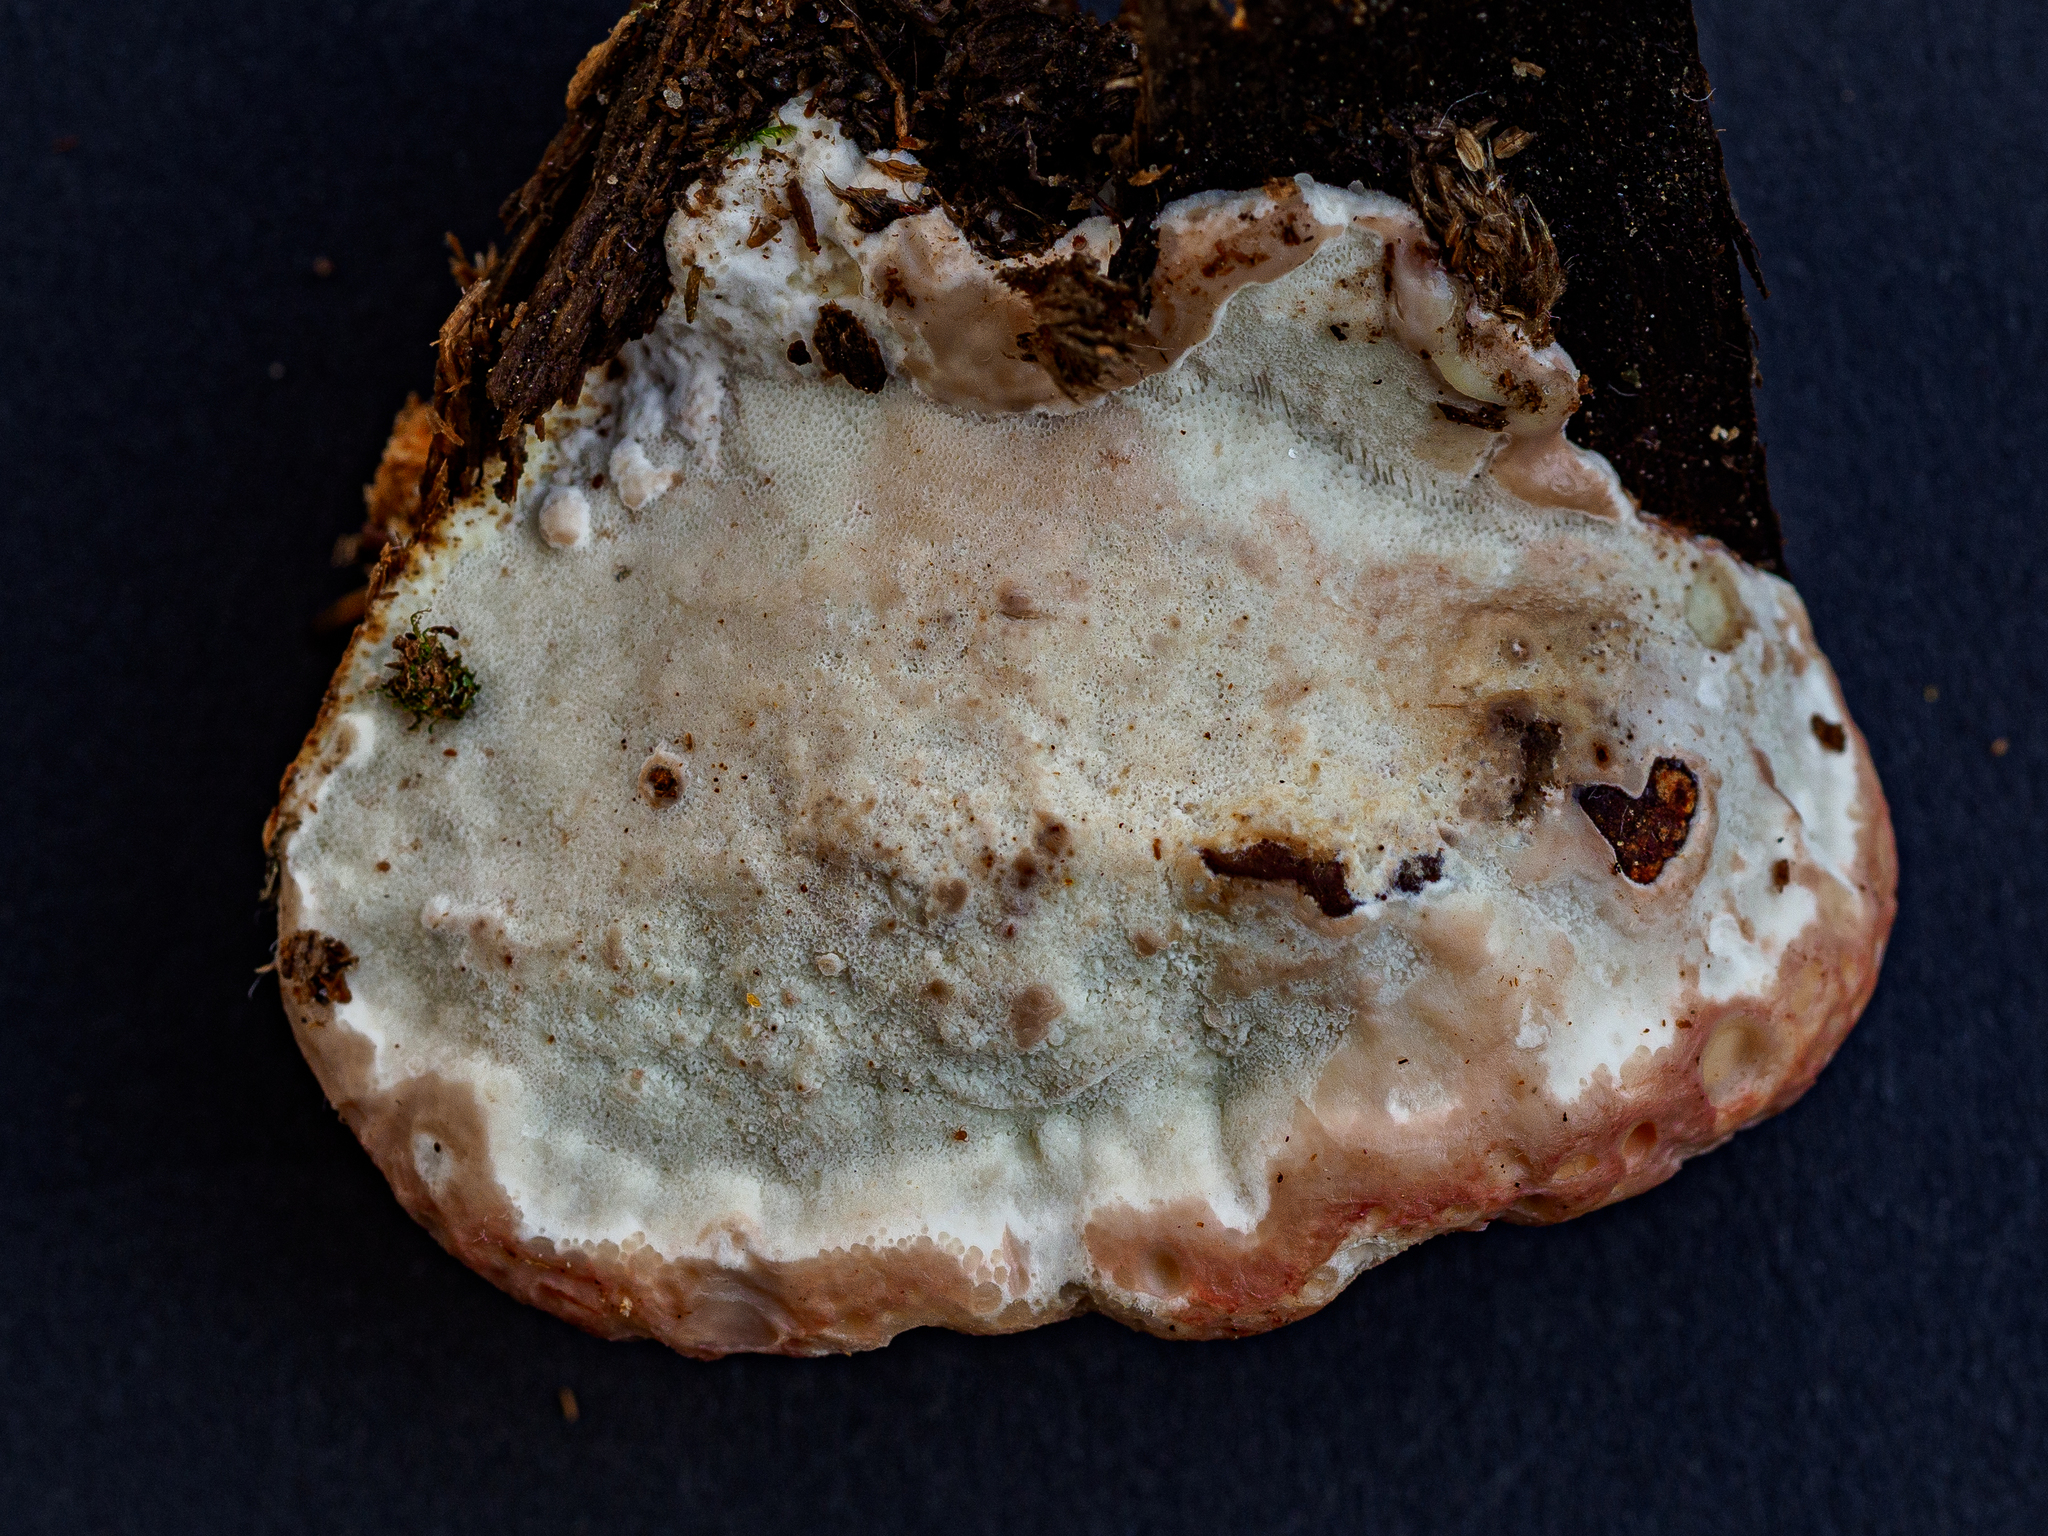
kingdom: Fungi
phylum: Basidiomycota
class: Agaricomycetes
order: Polyporales
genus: Calcipostia
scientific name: Calcipostia guttulata
